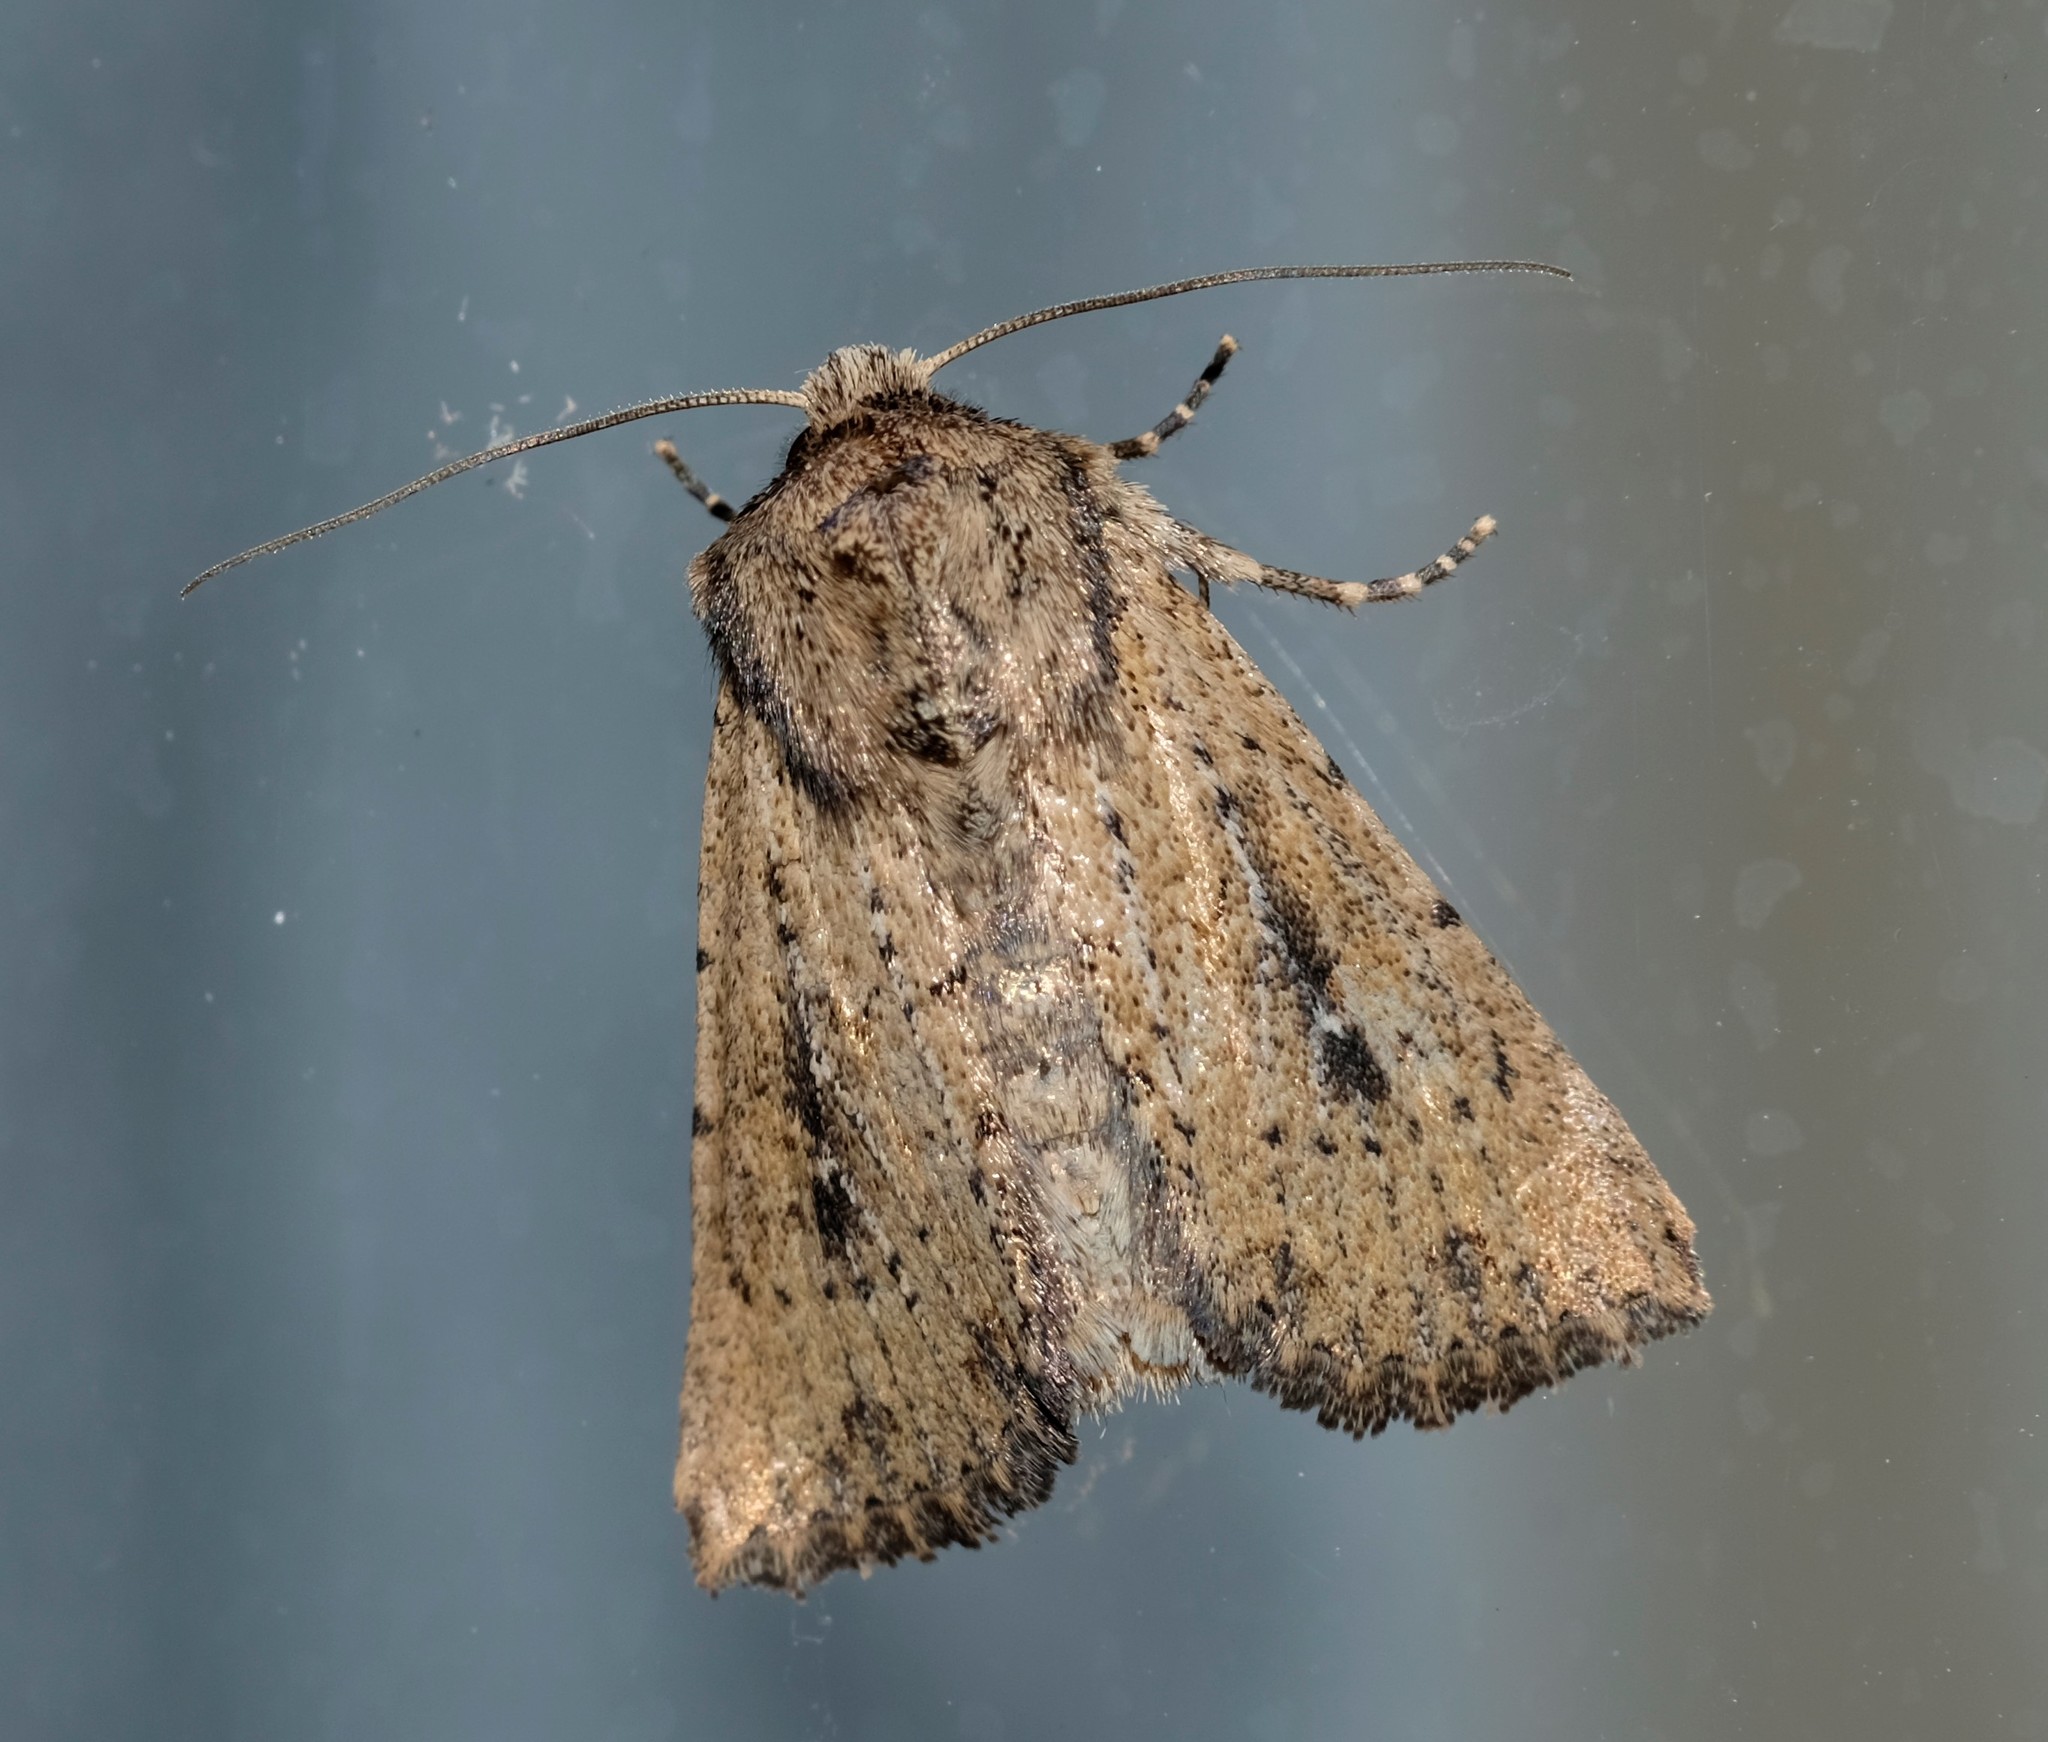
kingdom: Animalia
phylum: Arthropoda
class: Insecta
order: Lepidoptera
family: Noctuidae
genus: Leucania
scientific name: Leucania obumbrata
